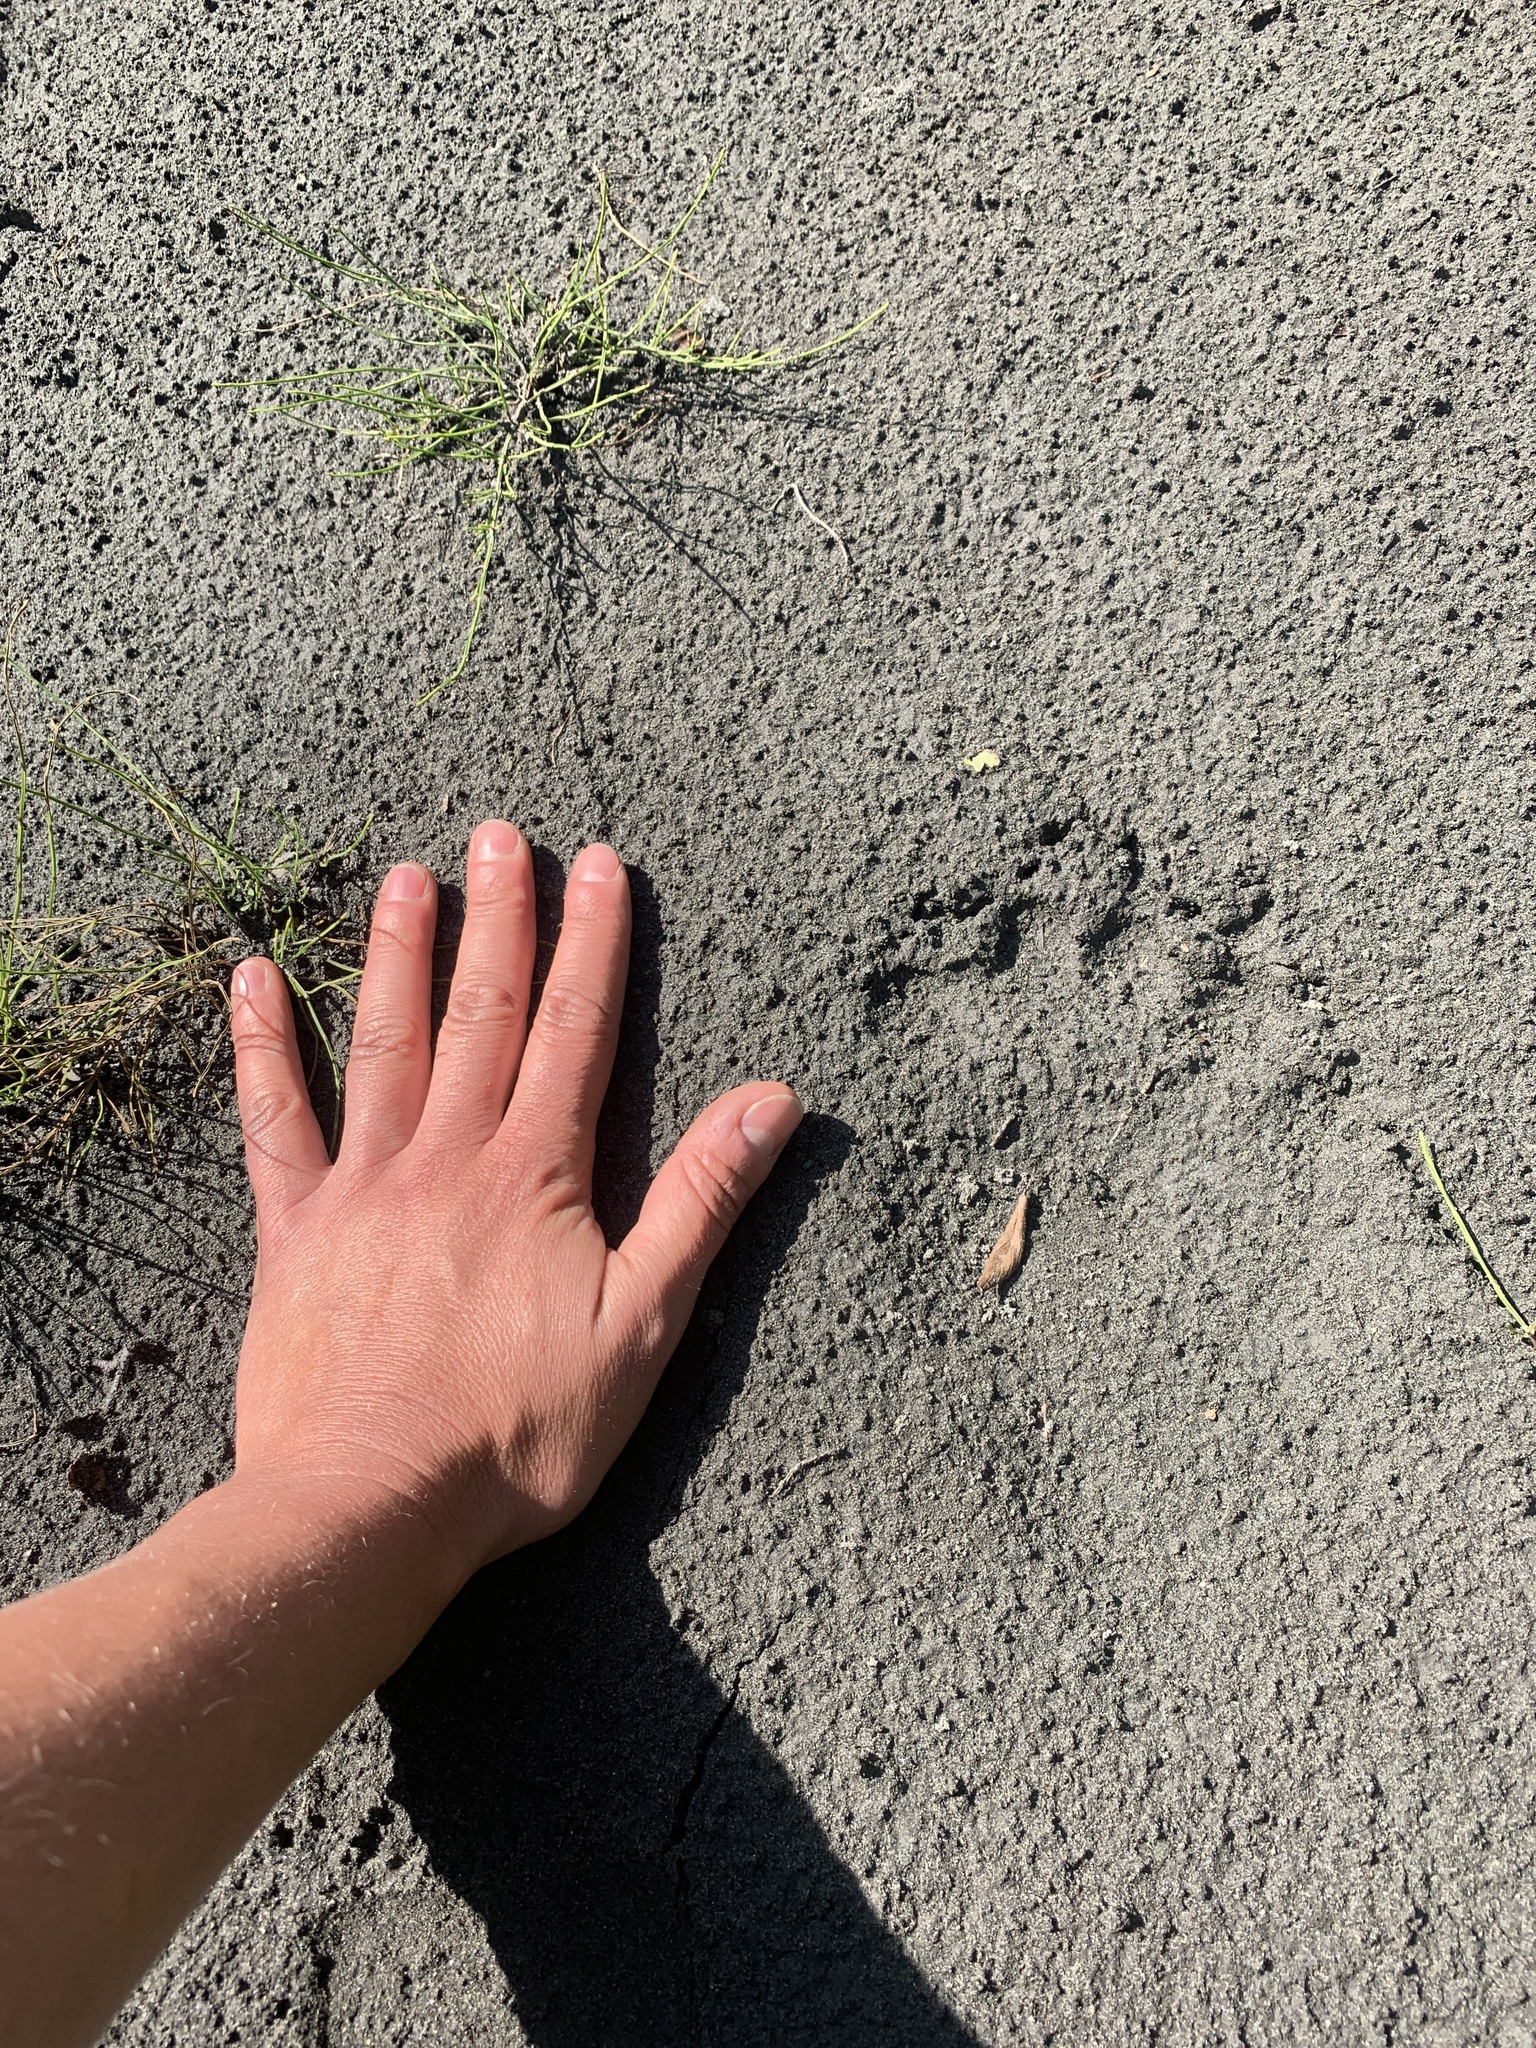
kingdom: Animalia
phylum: Chordata
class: Mammalia
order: Carnivora
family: Ursidae
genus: Ursus
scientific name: Ursus americanus
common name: American black bear
